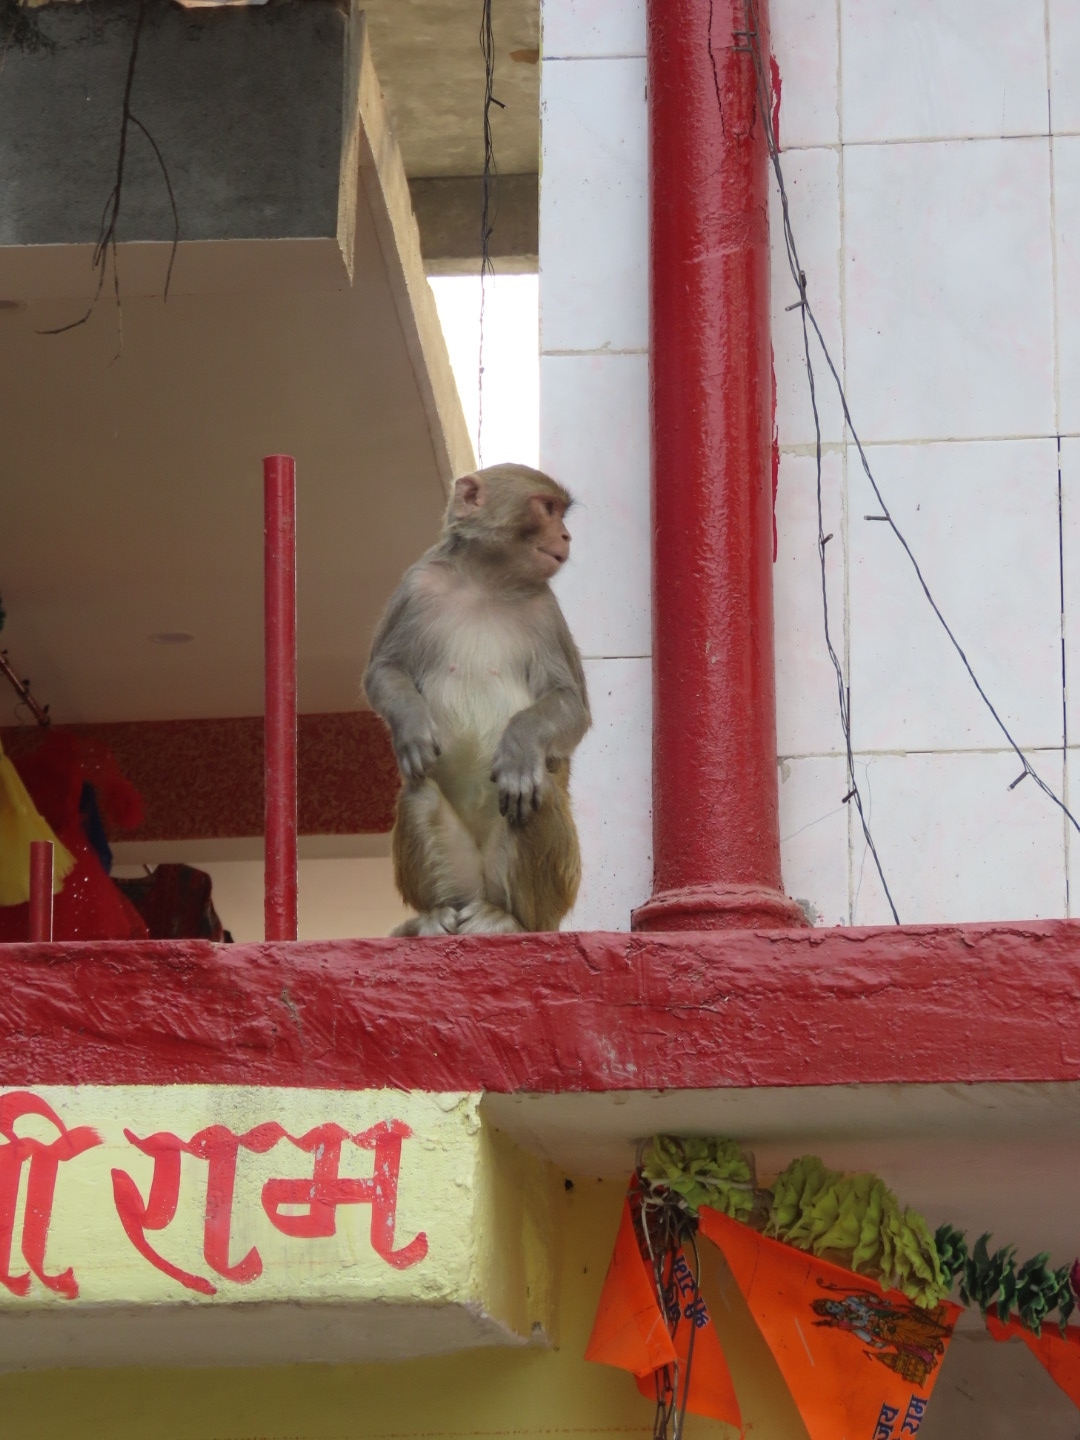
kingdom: Animalia
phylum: Chordata
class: Mammalia
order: Primates
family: Cercopithecidae
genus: Macaca
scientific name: Macaca mulatta
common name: Rhesus monkey
